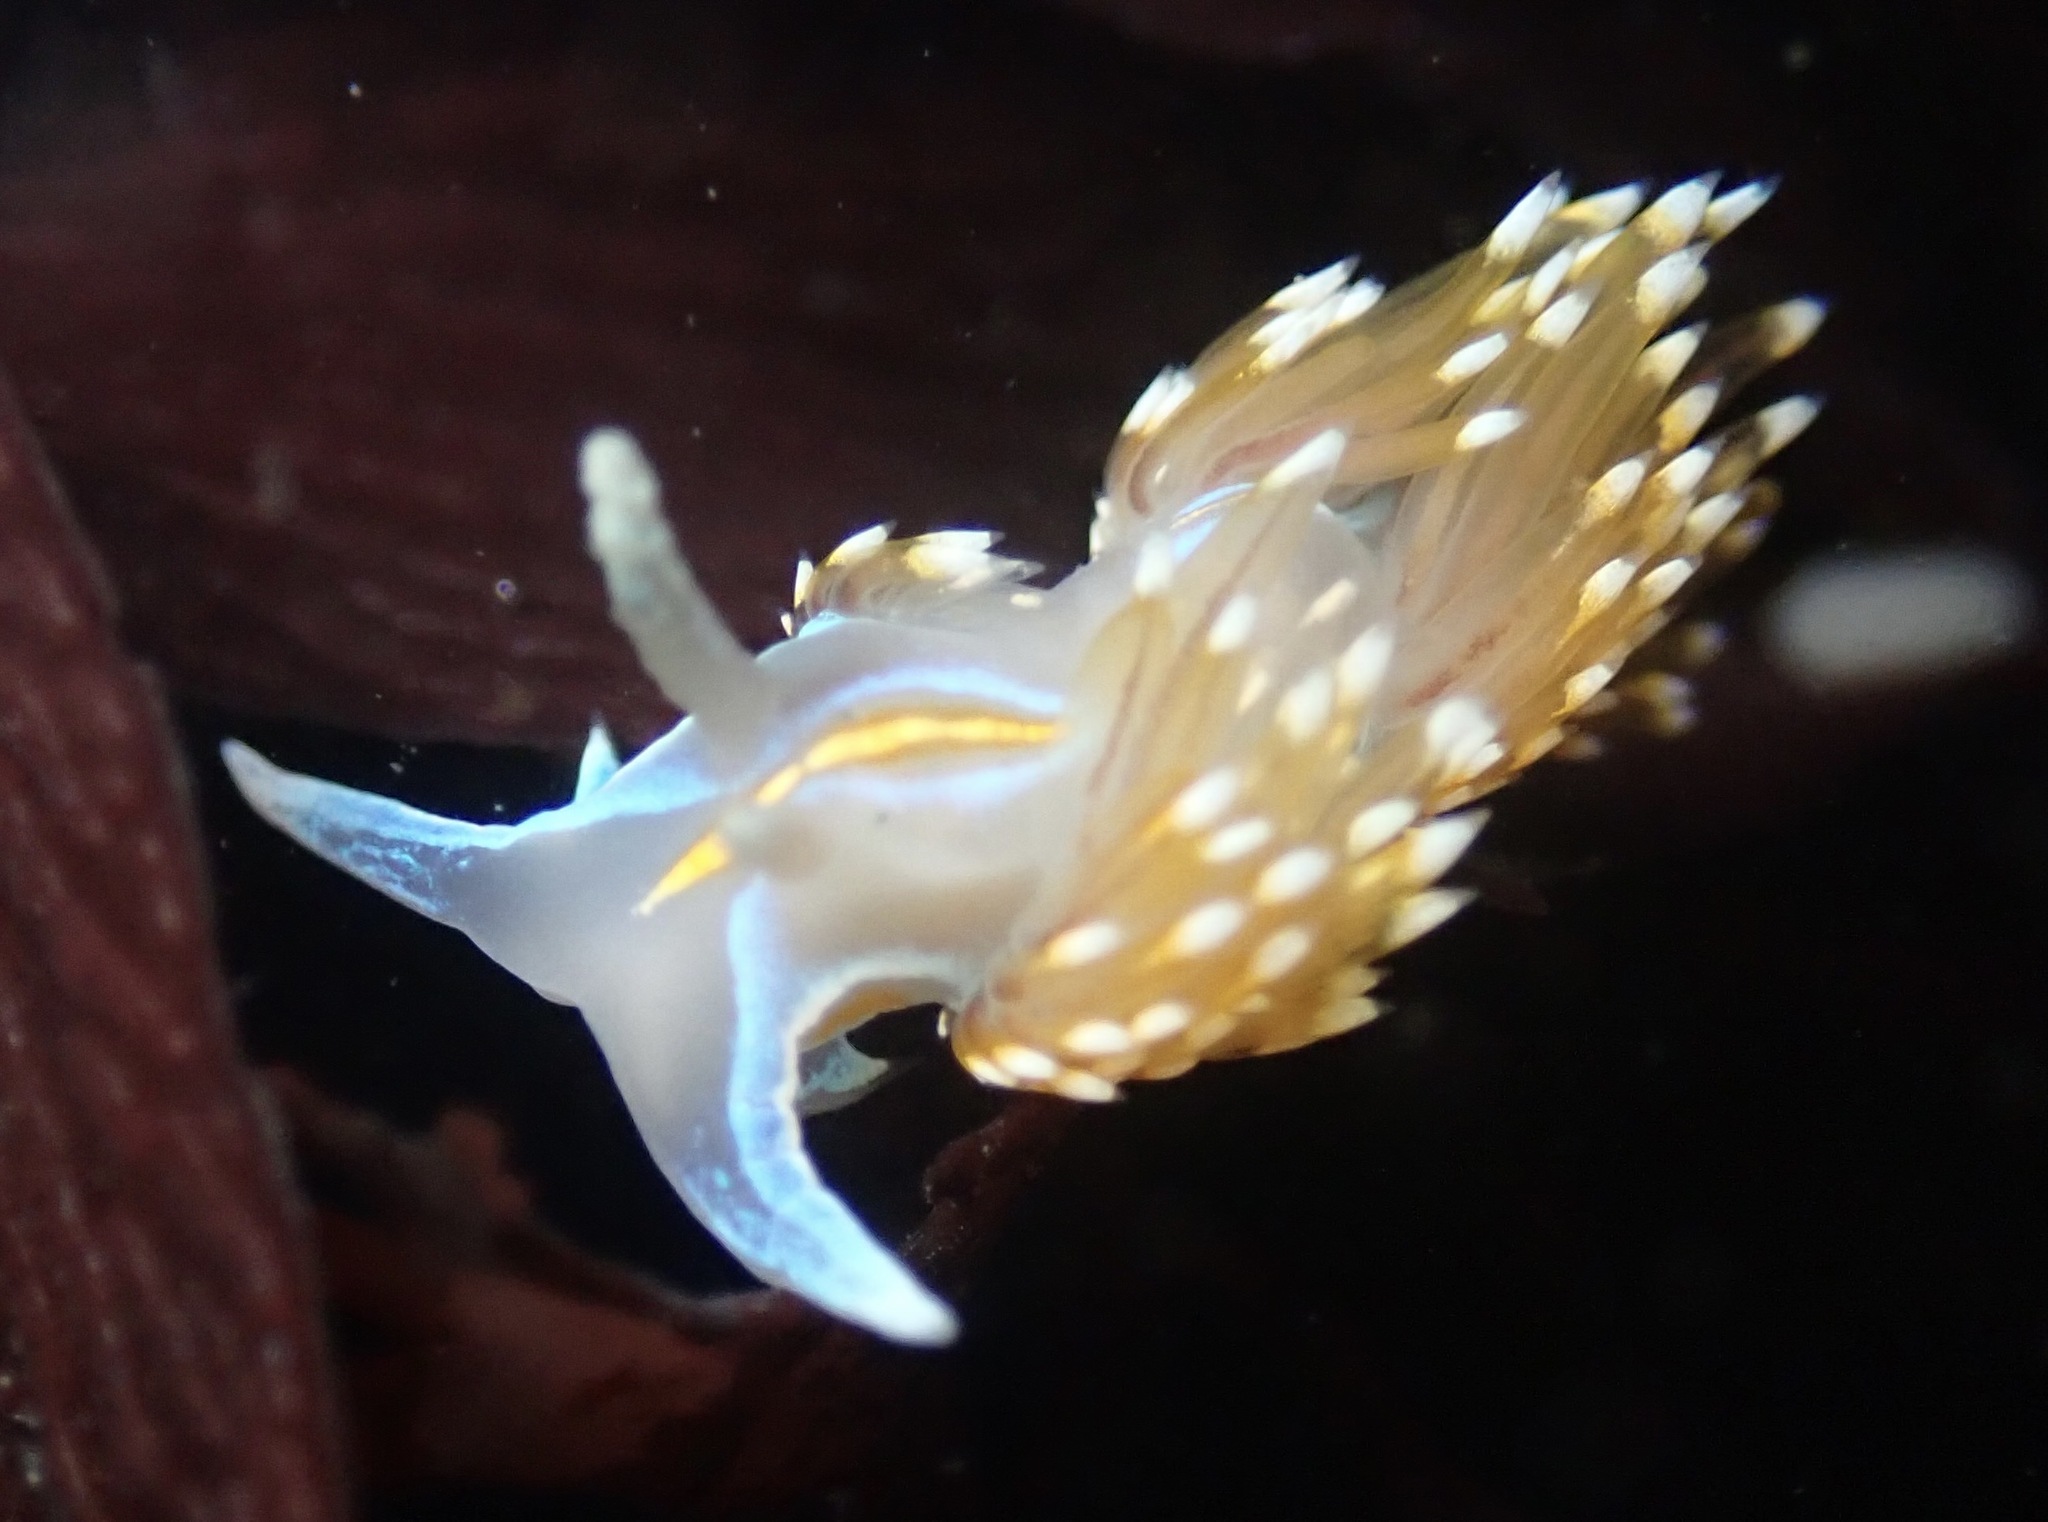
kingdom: Animalia
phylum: Mollusca
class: Gastropoda
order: Nudibranchia
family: Myrrhinidae
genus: Hermissenda
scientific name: Hermissenda opalescens
